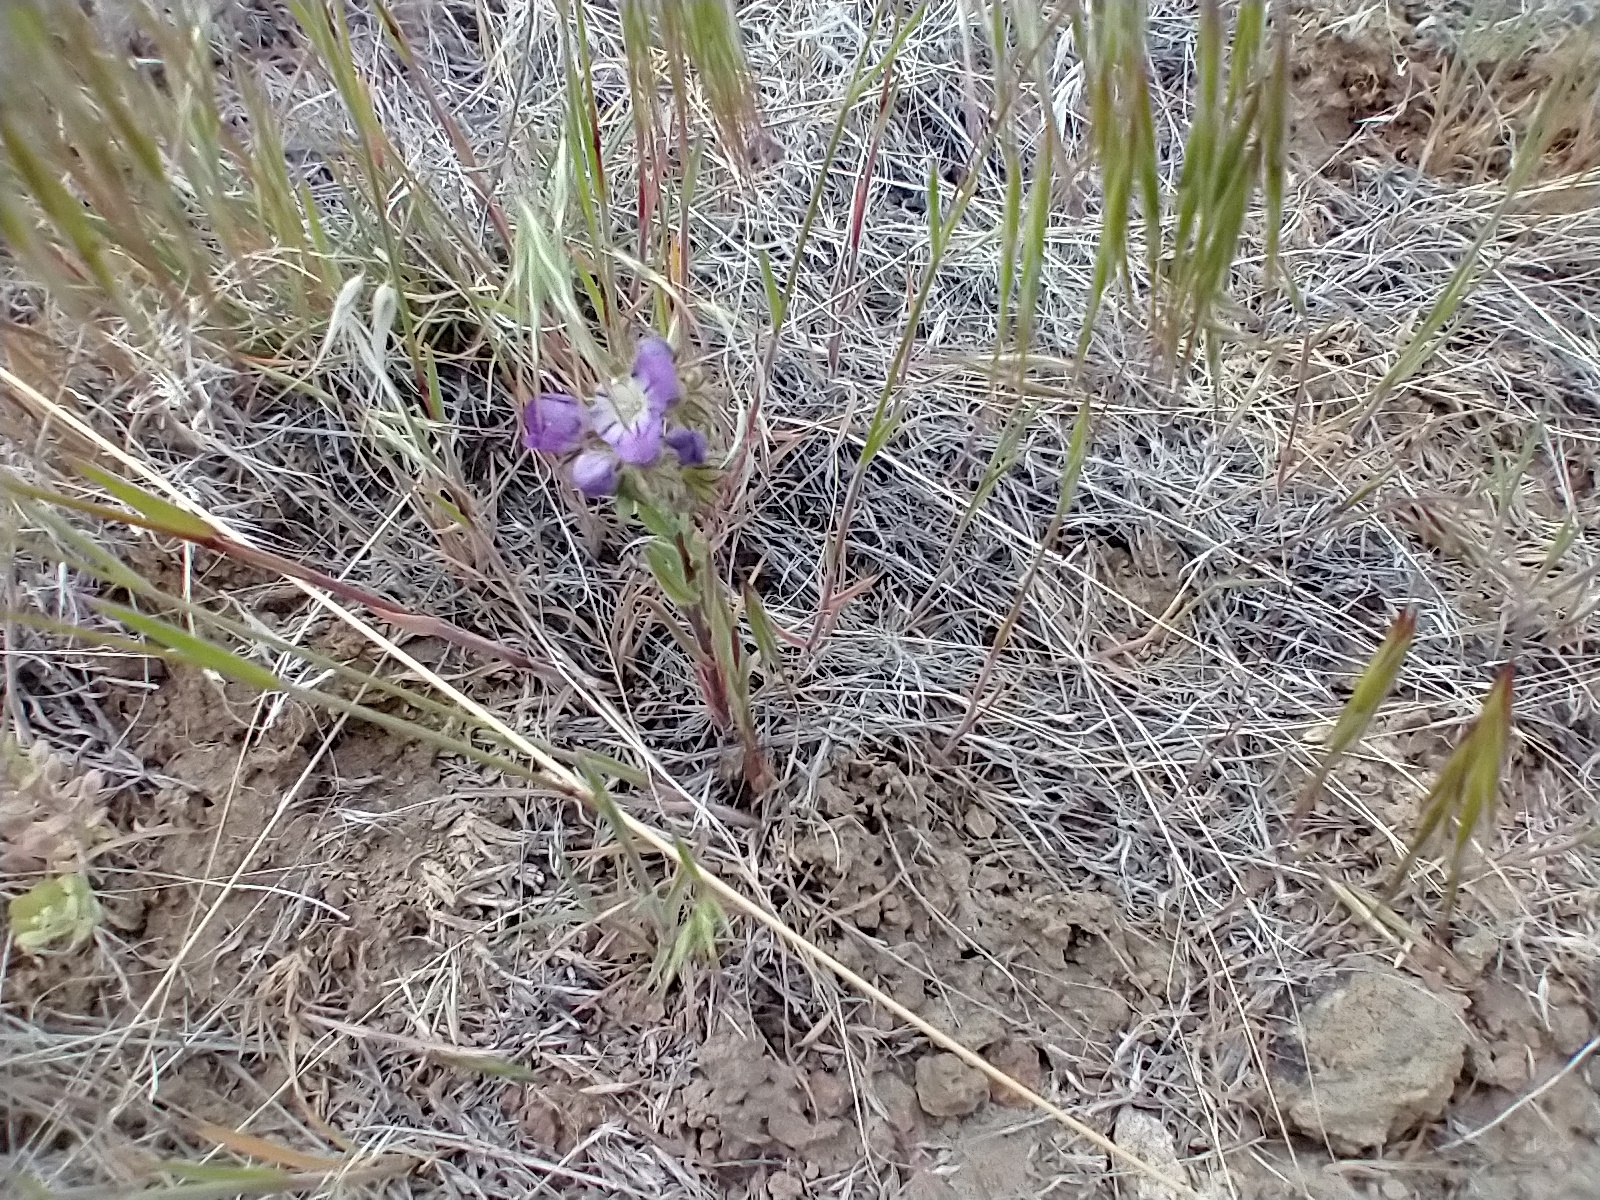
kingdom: Plantae
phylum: Tracheophyta
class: Magnoliopsida
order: Boraginales
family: Hydrophyllaceae
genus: Phacelia
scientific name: Phacelia linearis
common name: Linear-leaved phacelia
